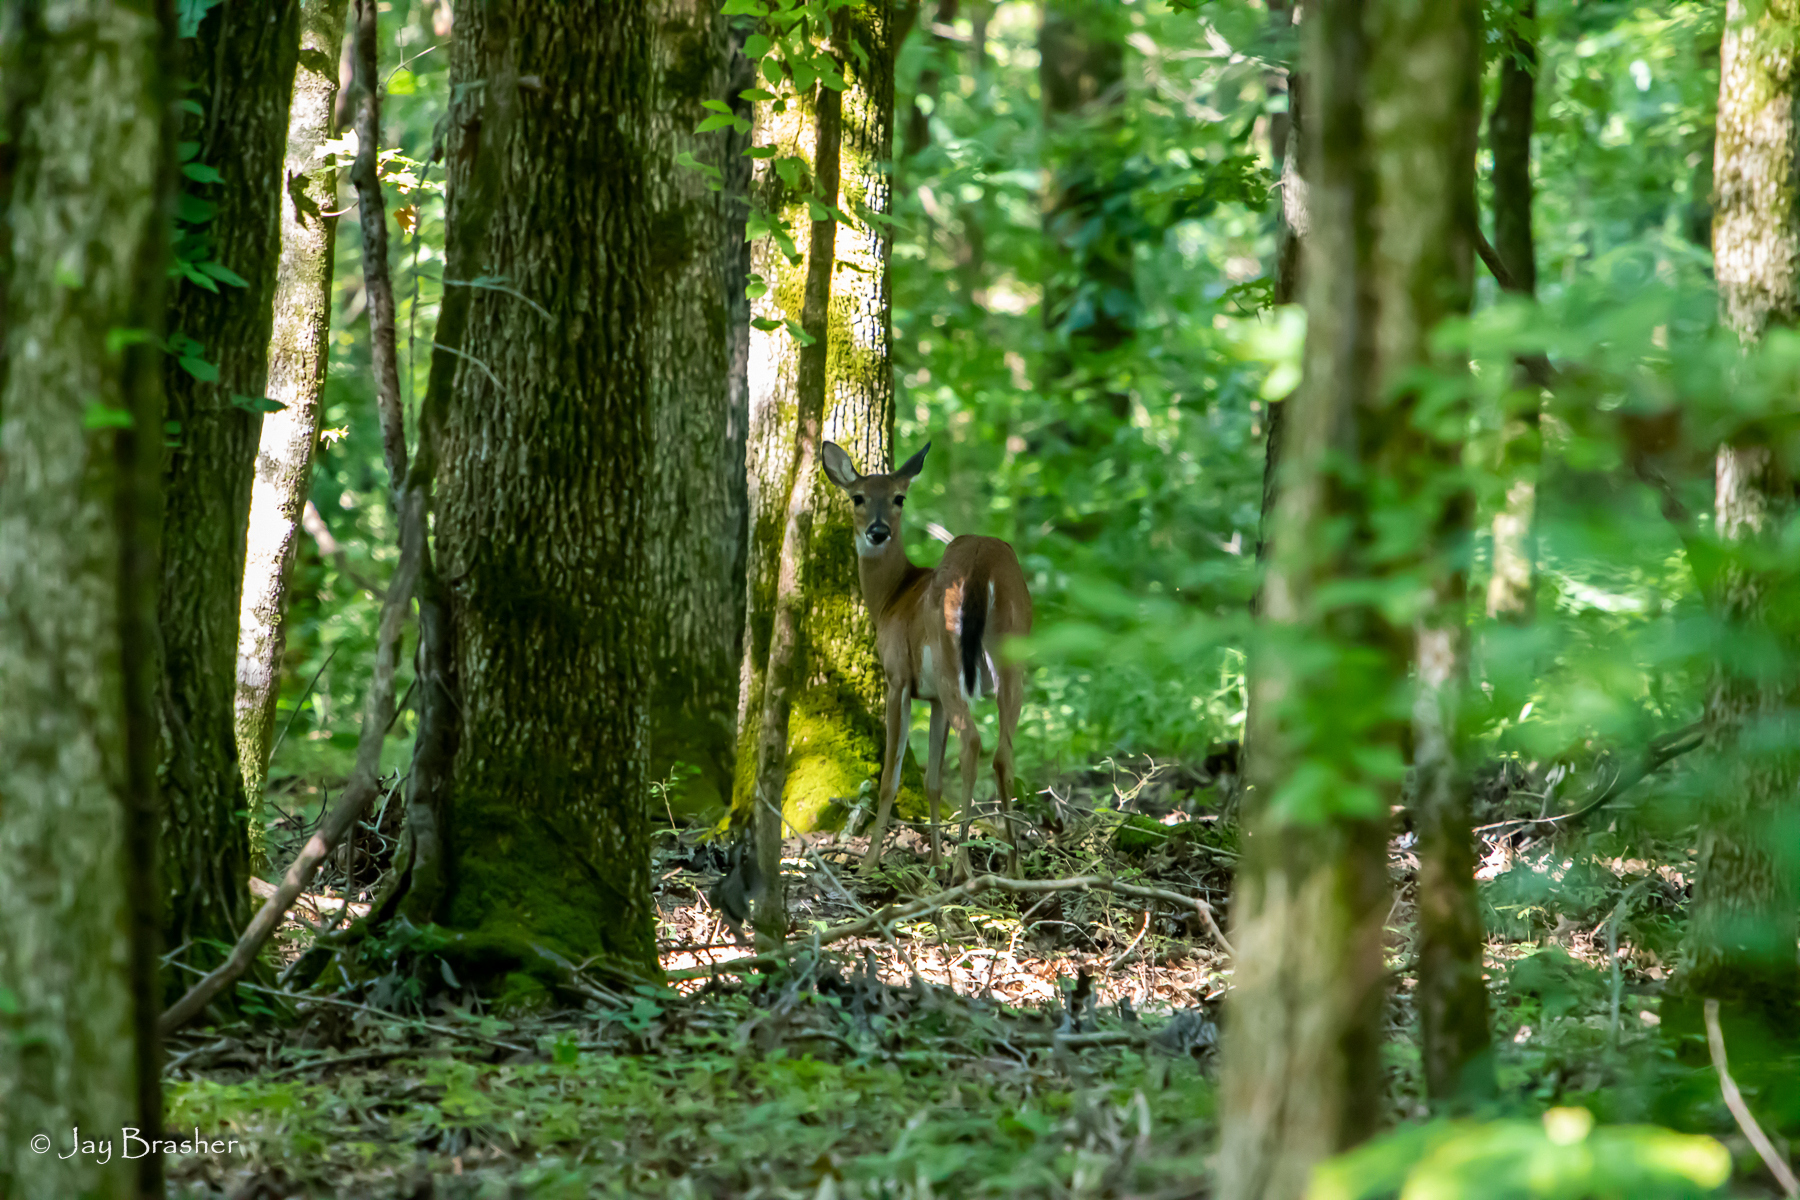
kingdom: Animalia
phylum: Chordata
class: Mammalia
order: Artiodactyla
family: Cervidae
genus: Odocoileus
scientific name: Odocoileus virginianus
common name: White-tailed deer
